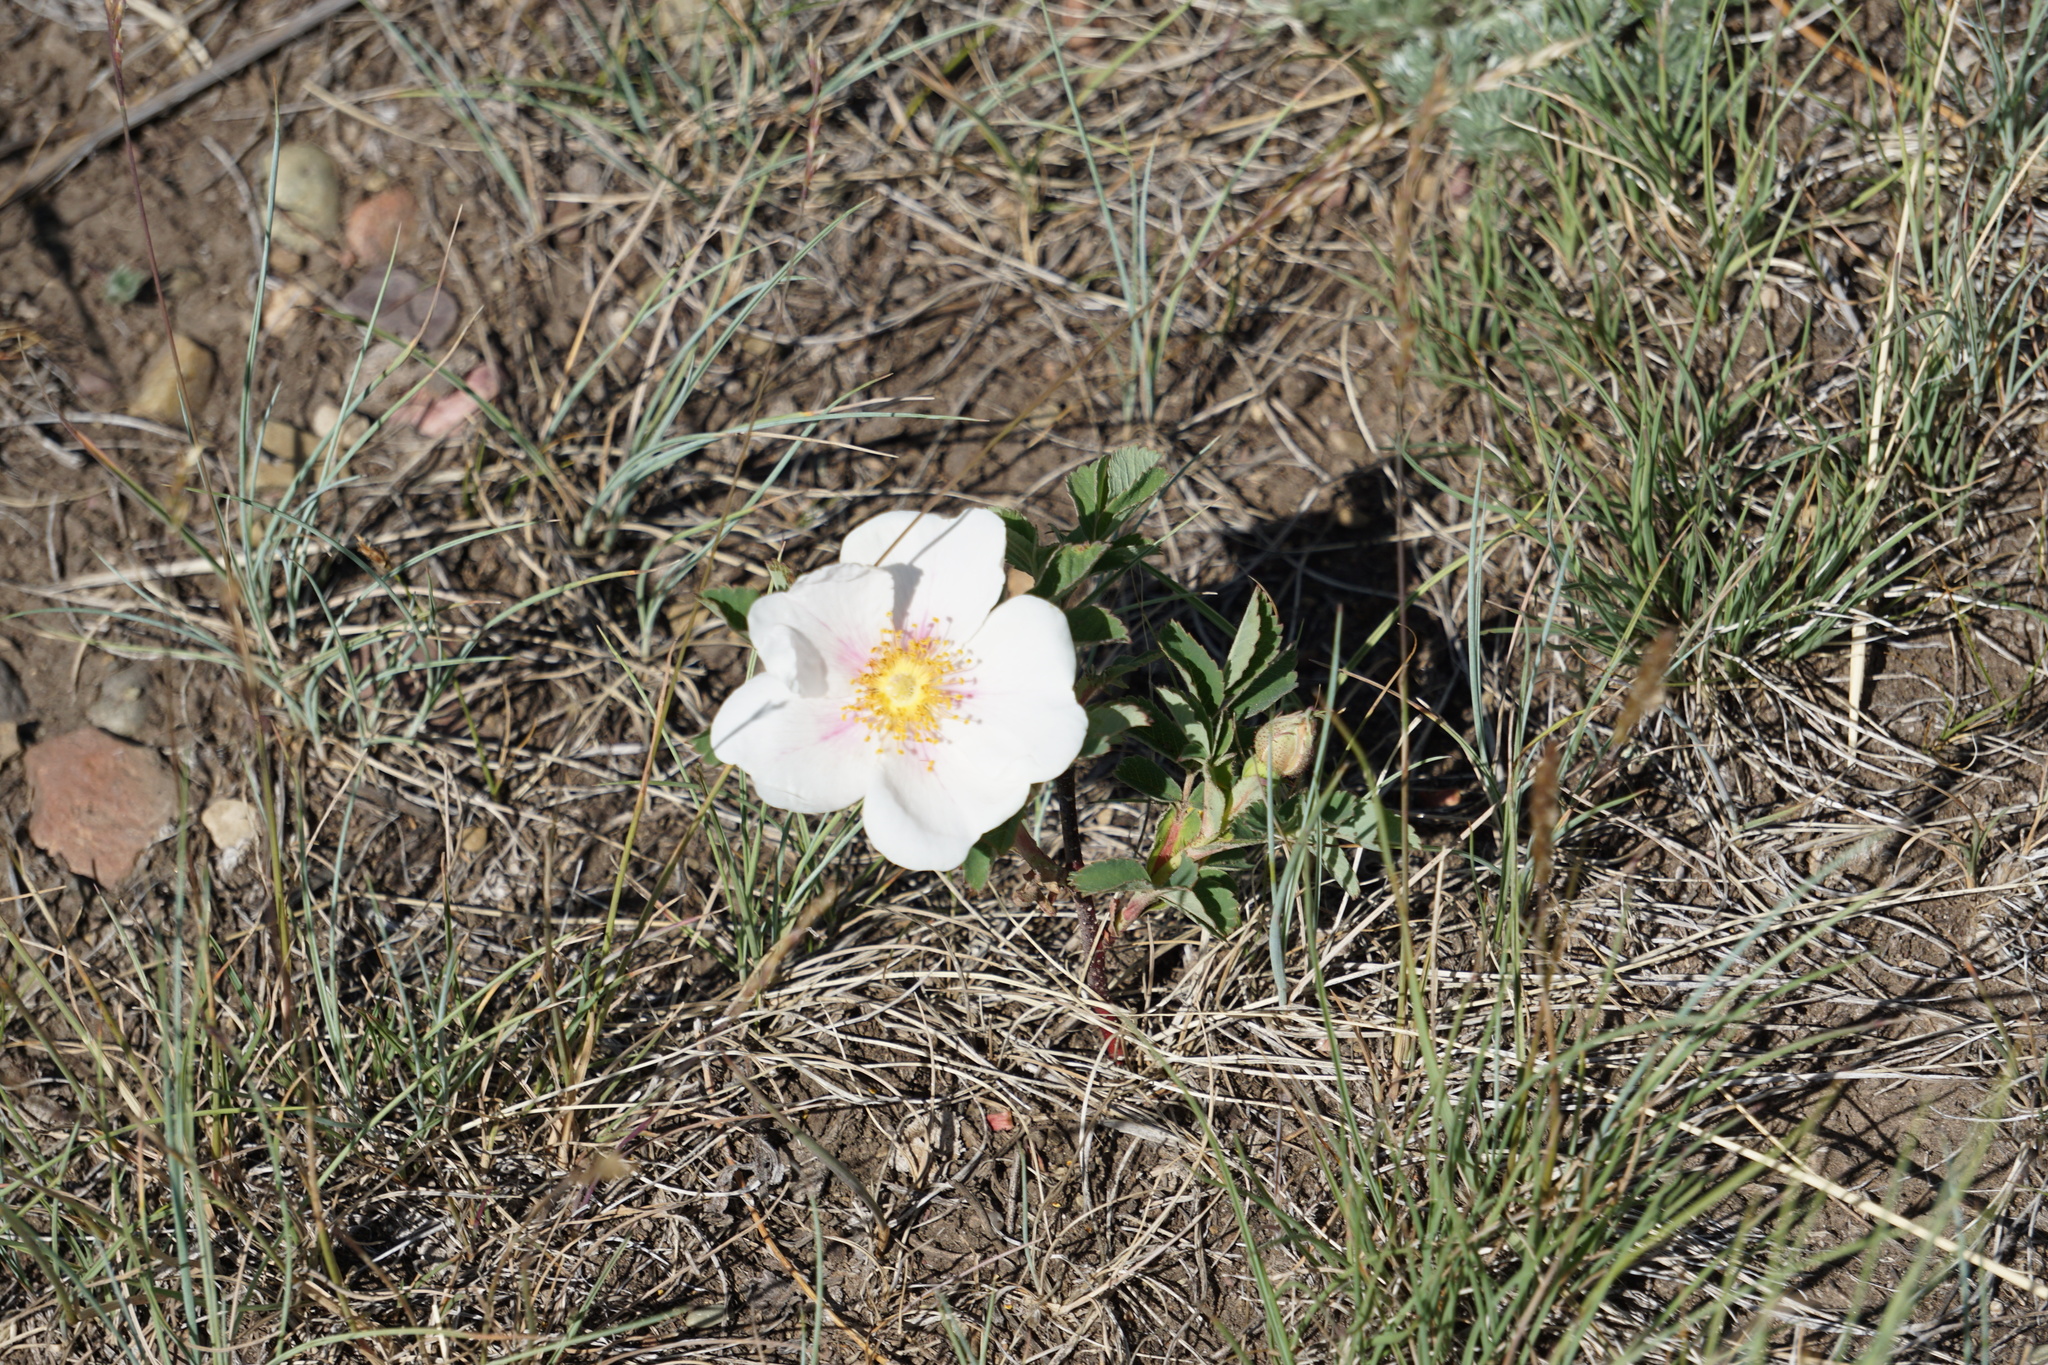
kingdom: Plantae
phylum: Tracheophyta
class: Magnoliopsida
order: Rosales
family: Rosaceae
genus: Rosa
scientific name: Rosa arkansana
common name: Prairie rose
